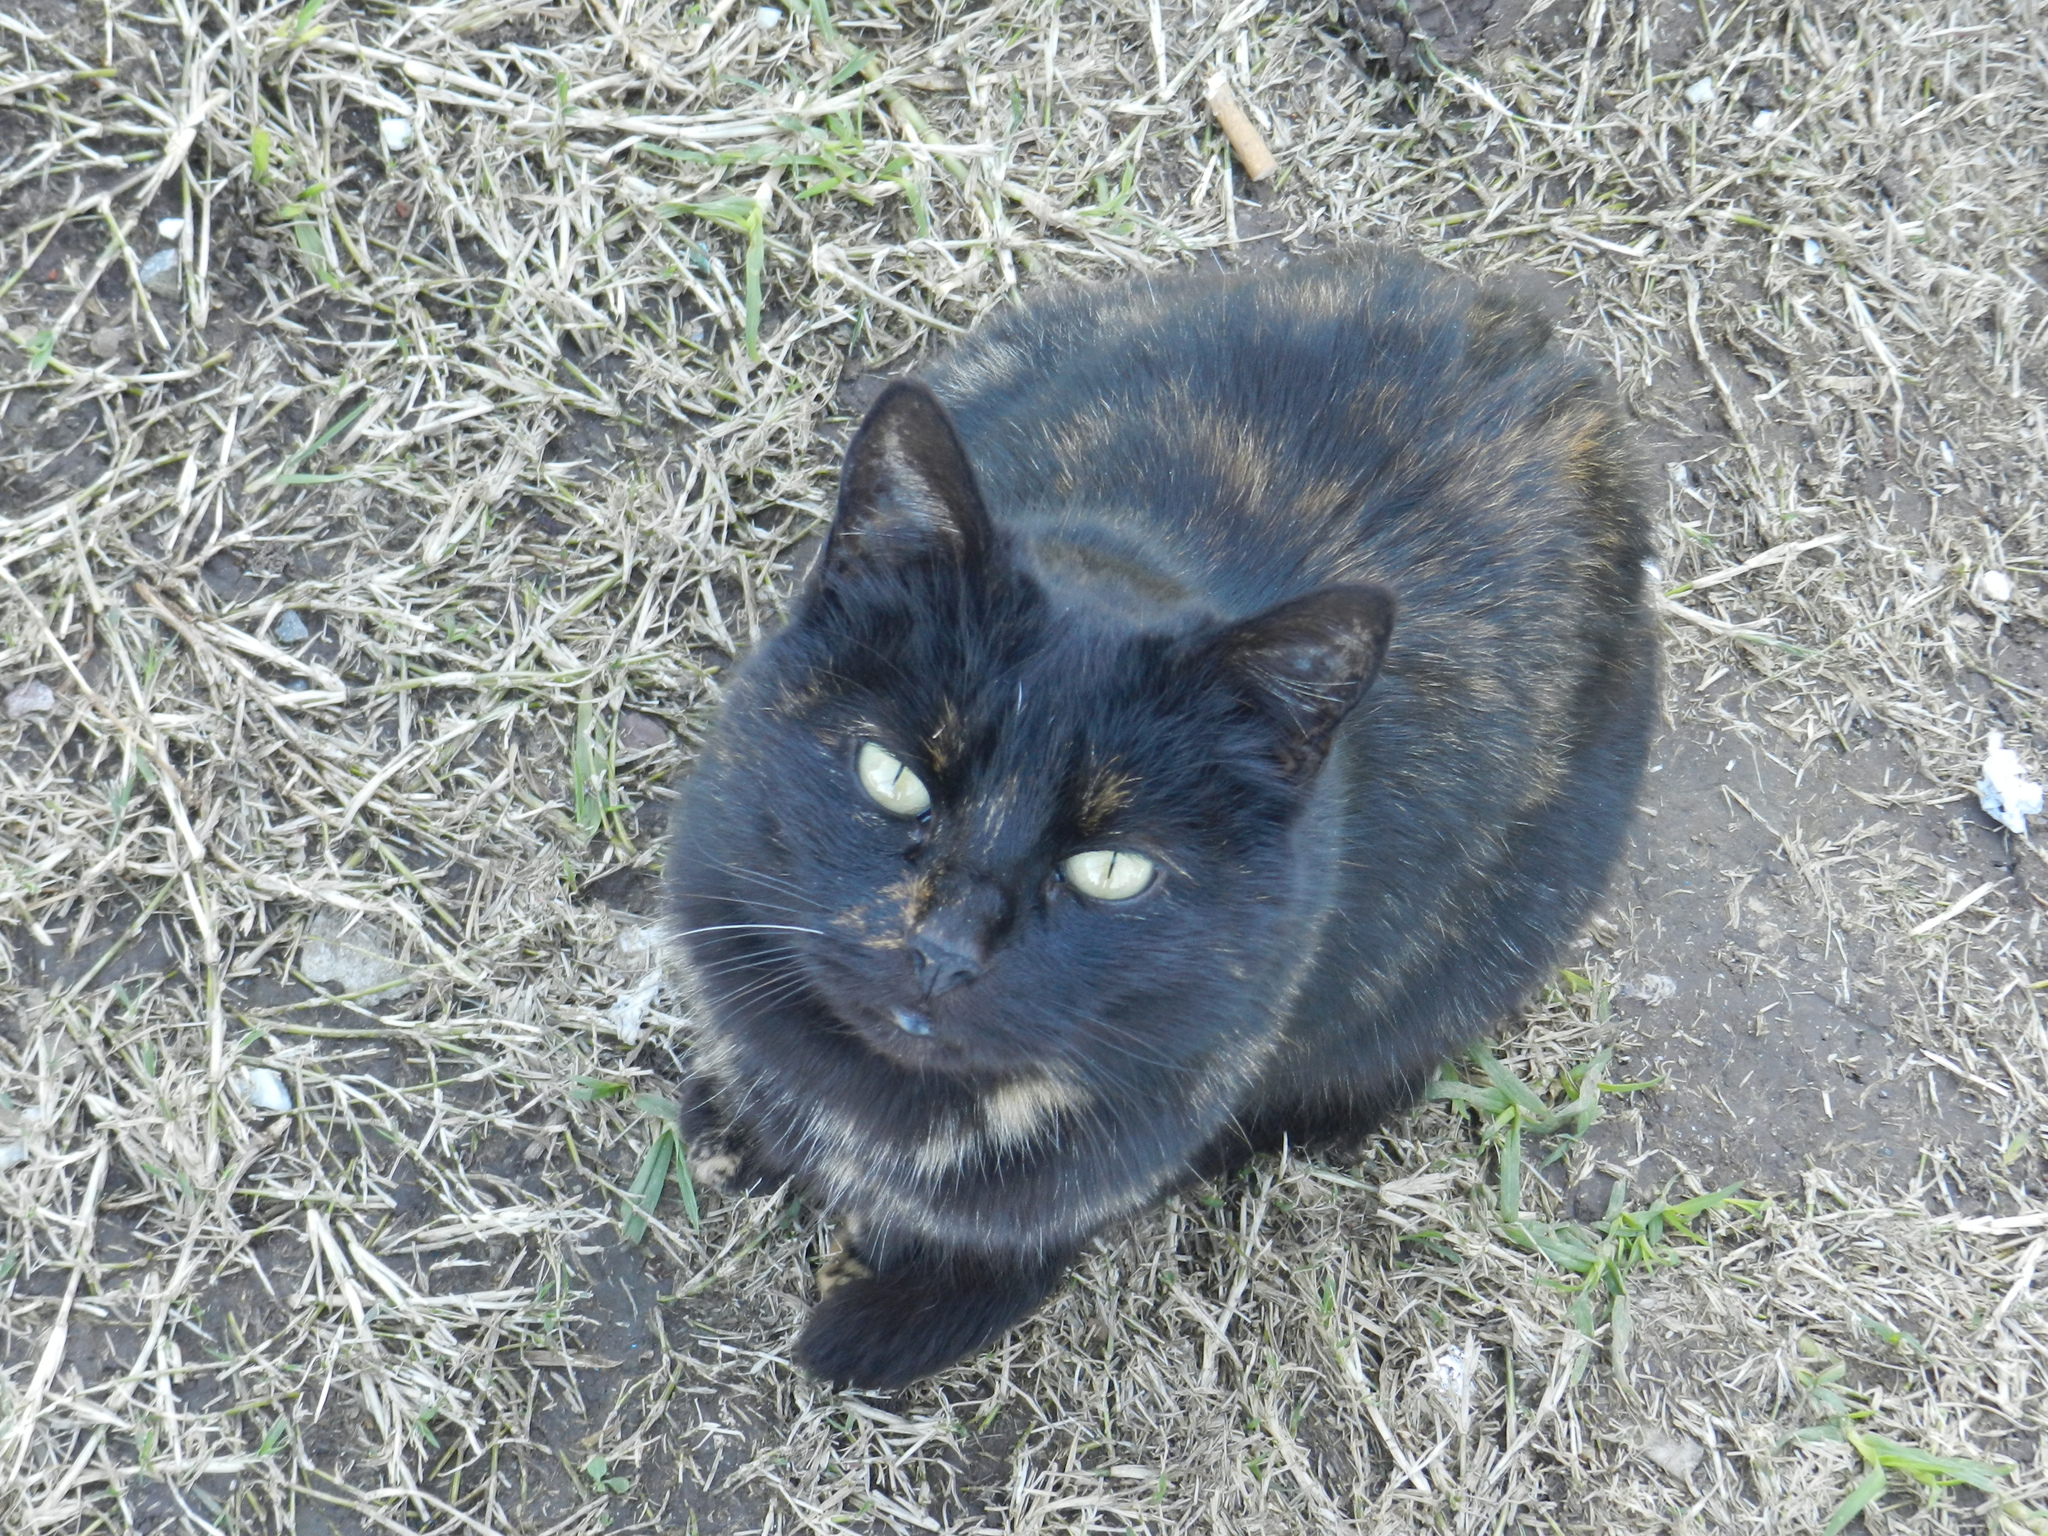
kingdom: Animalia
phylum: Chordata
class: Mammalia
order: Carnivora
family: Felidae
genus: Felis
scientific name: Felis catus
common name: Domestic cat
